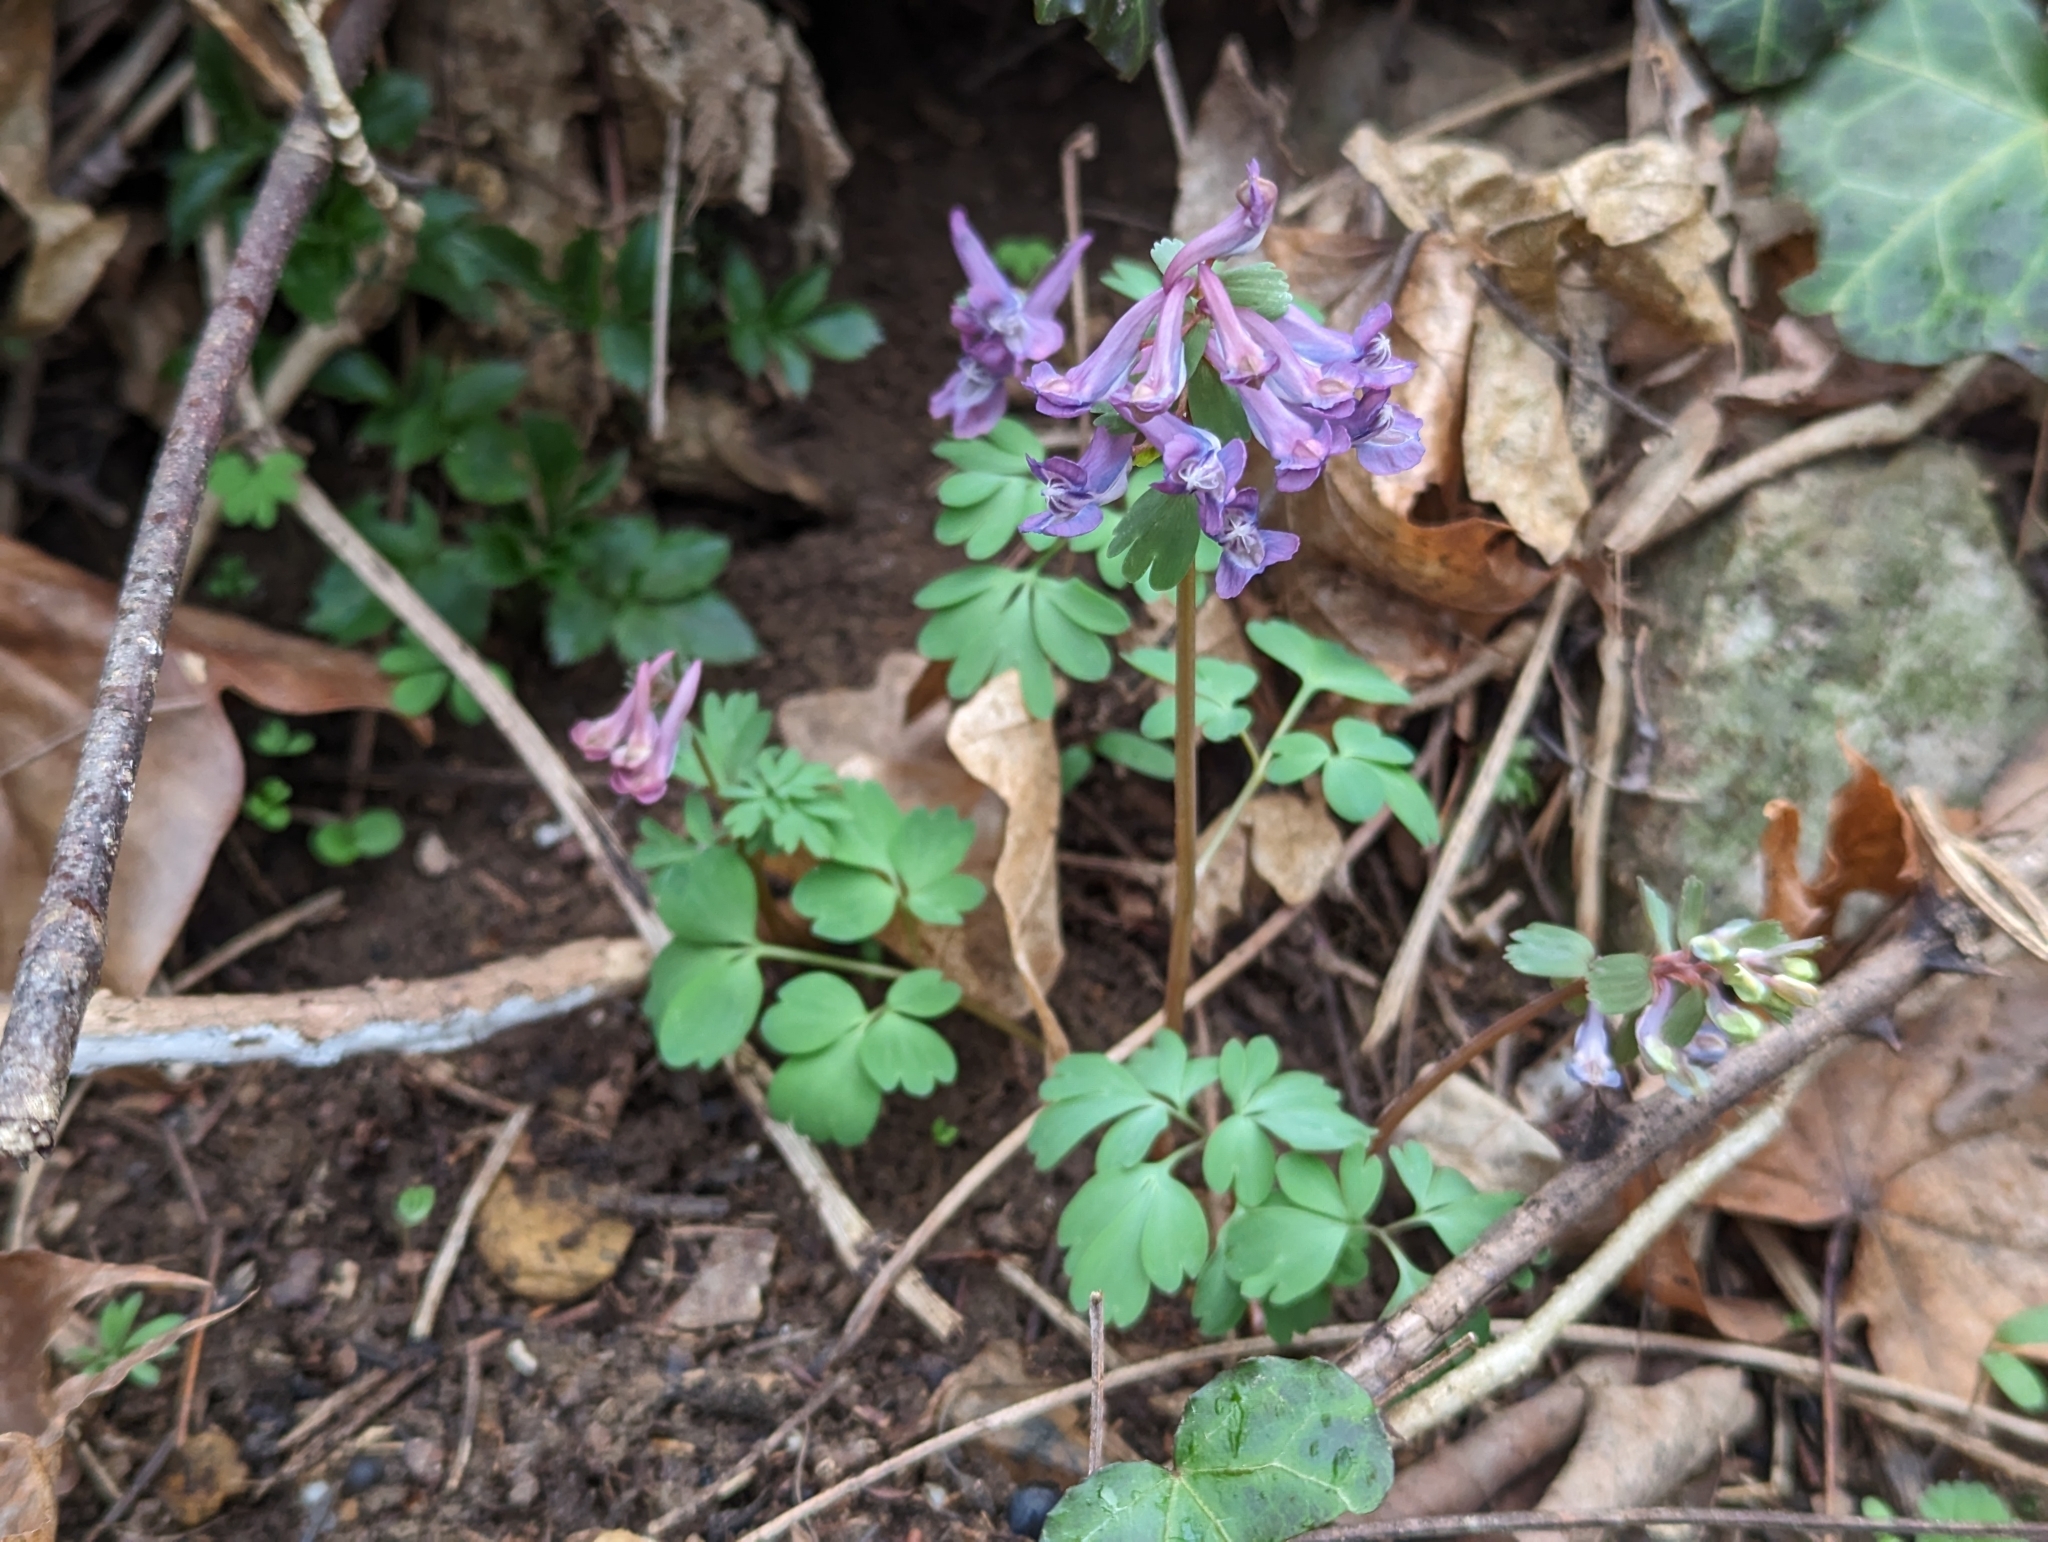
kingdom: Plantae
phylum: Tracheophyta
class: Magnoliopsida
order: Ranunculales
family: Papaveraceae
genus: Corydalis
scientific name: Corydalis solida
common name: Bird-in-a-bush
